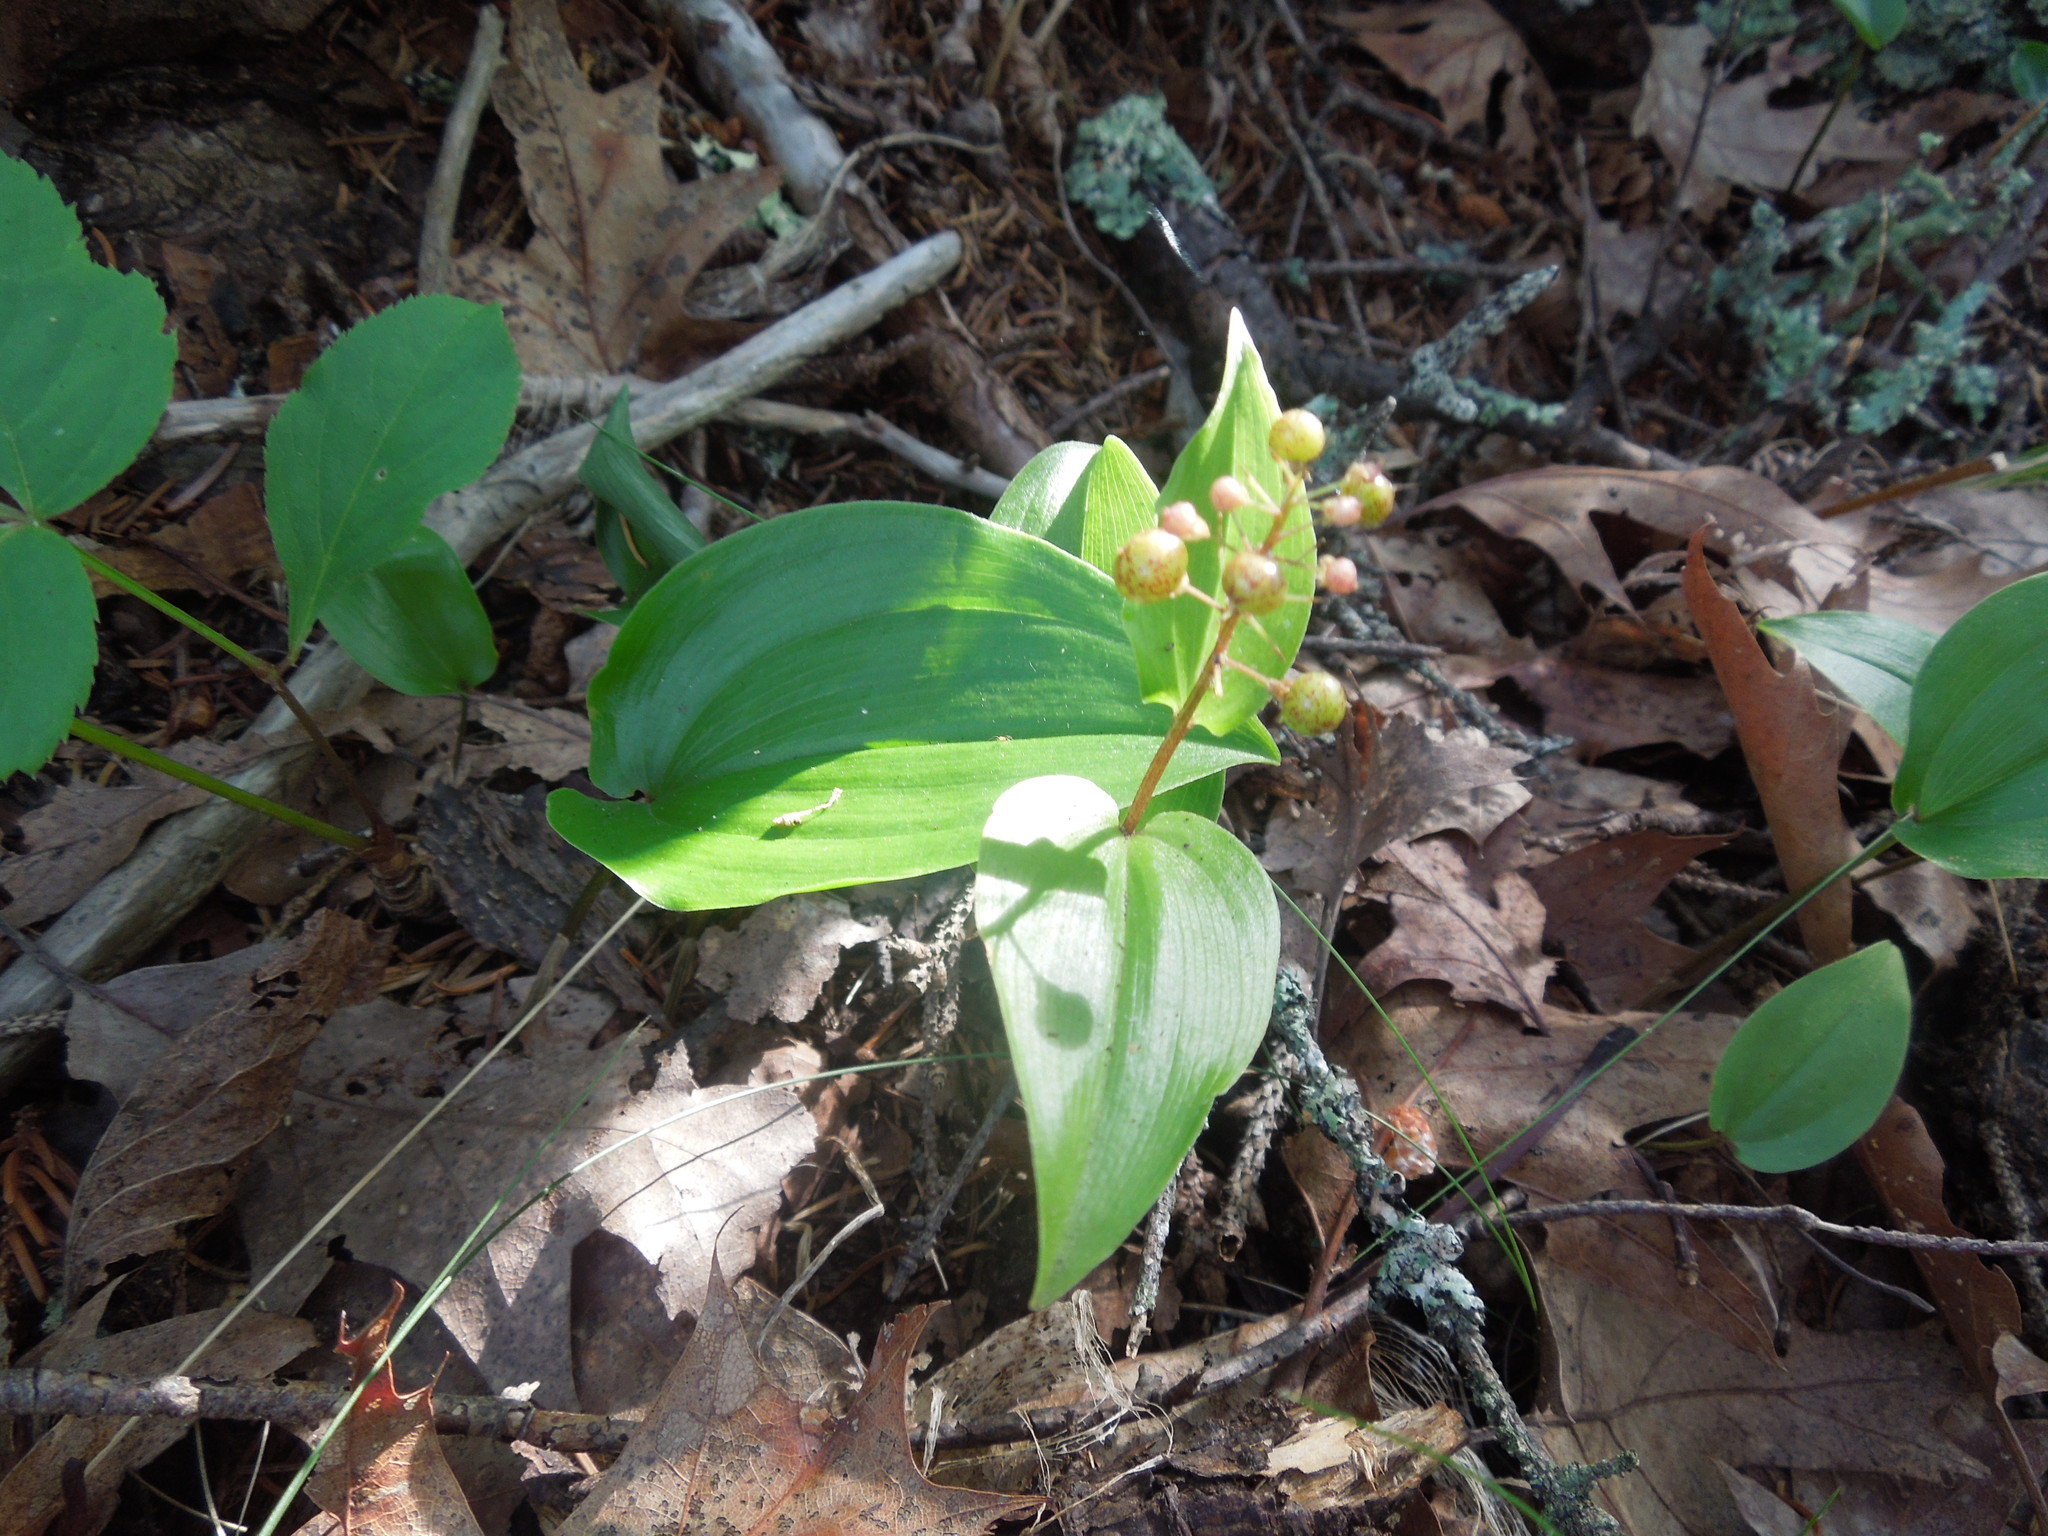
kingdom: Plantae
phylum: Tracheophyta
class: Liliopsida
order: Asparagales
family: Asparagaceae
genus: Maianthemum
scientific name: Maianthemum canadense
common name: False lily-of-the-valley
